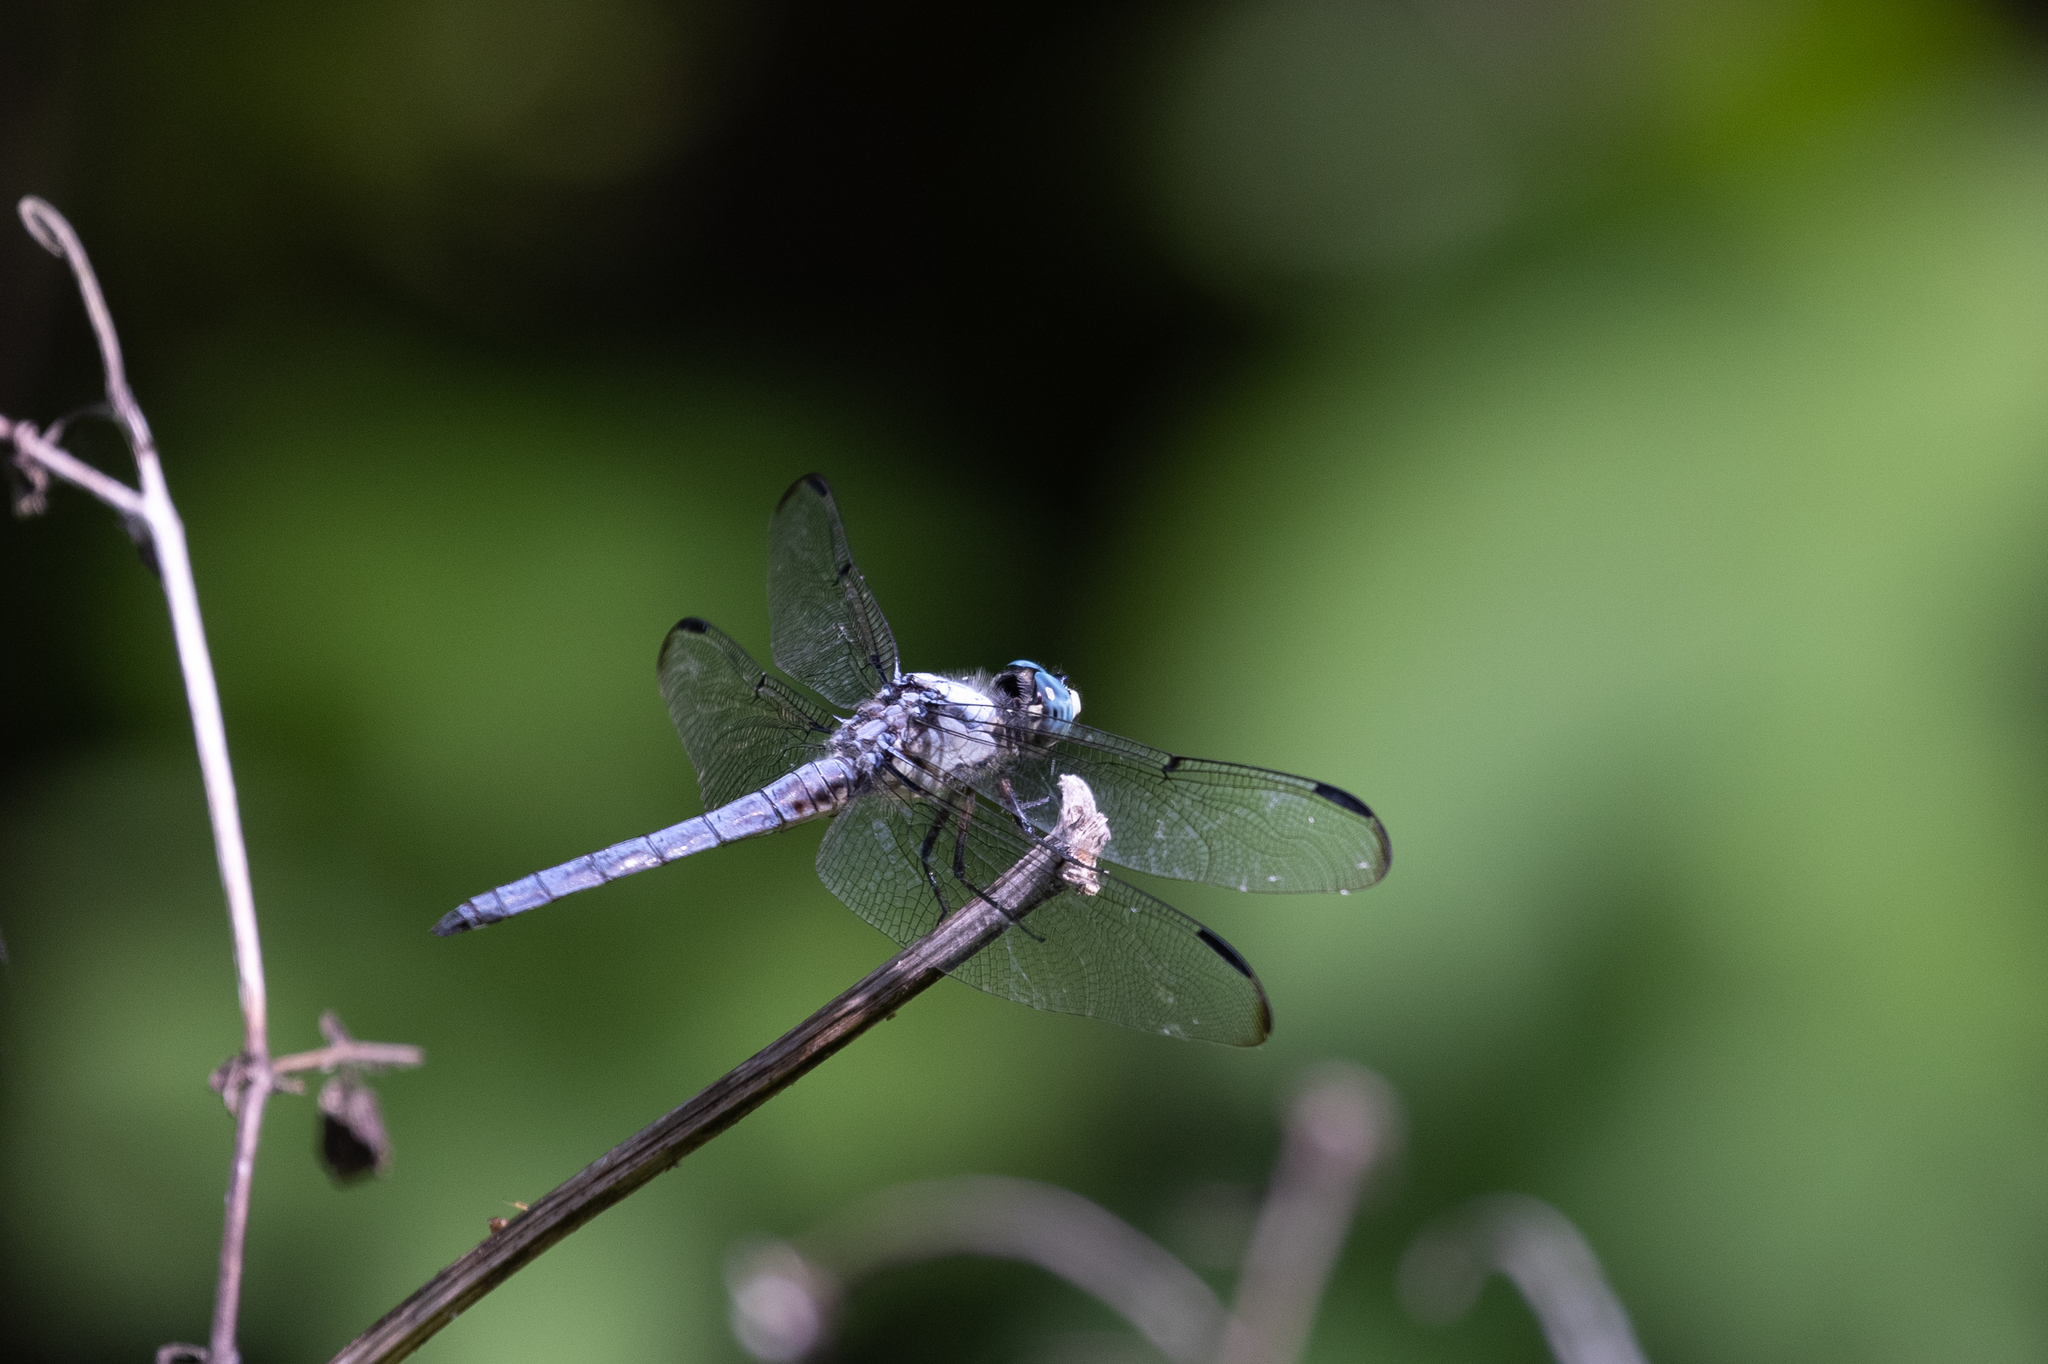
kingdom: Animalia
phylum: Arthropoda
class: Insecta
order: Odonata
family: Libellulidae
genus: Libellula
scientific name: Libellula vibrans
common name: Great blue skimmer
